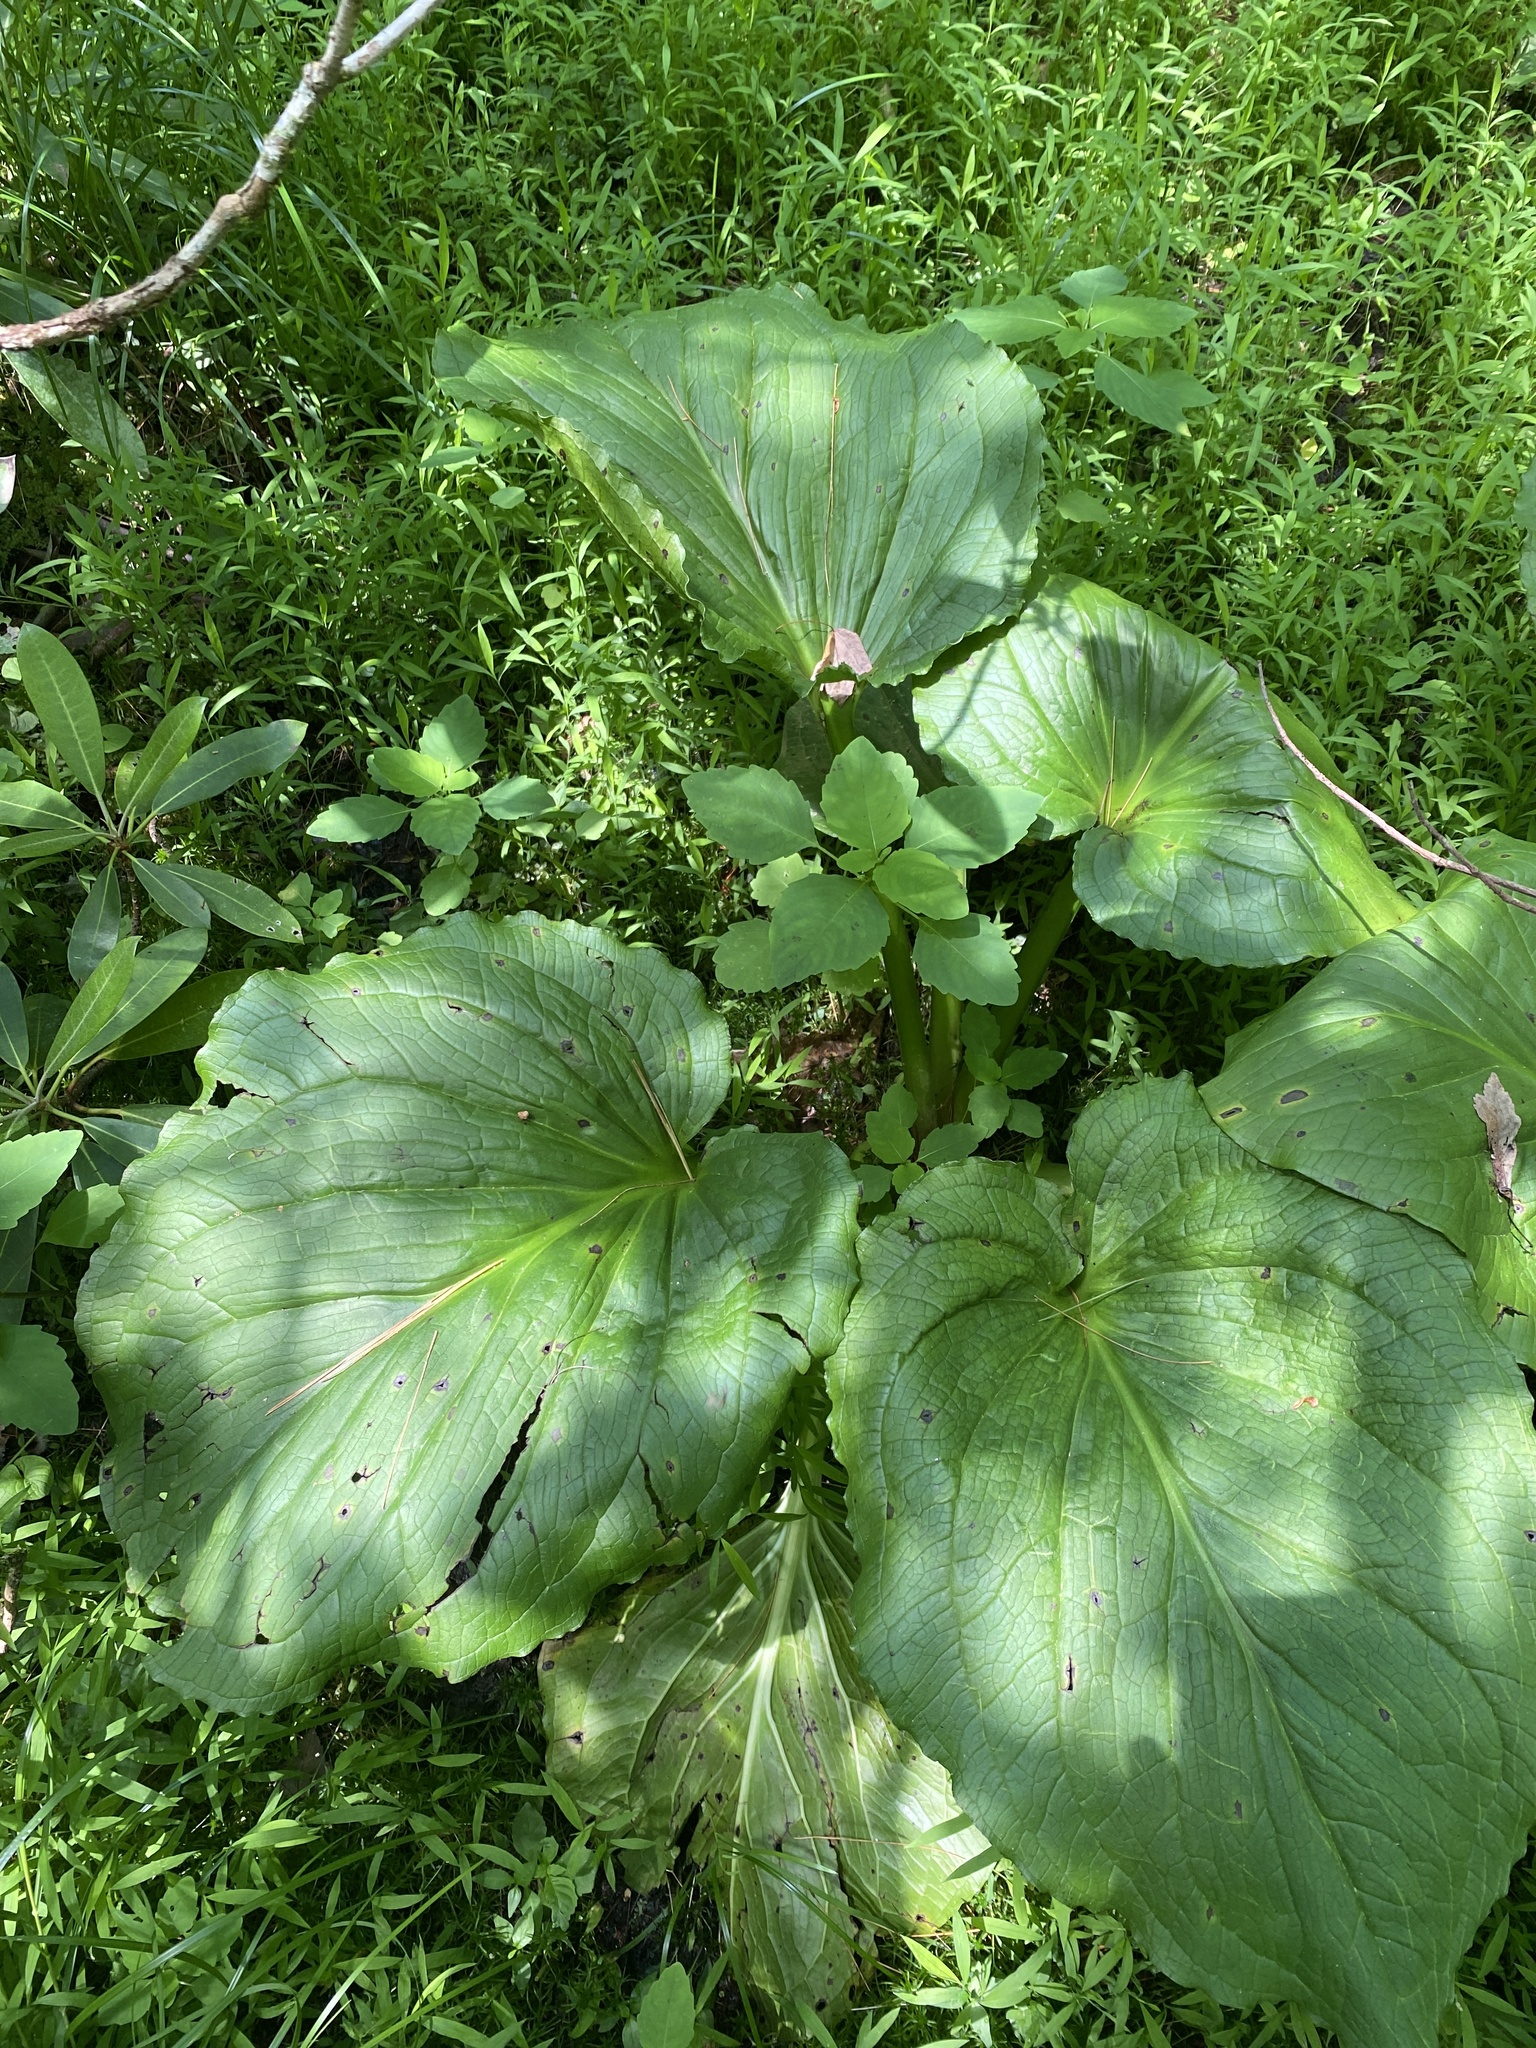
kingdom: Plantae
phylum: Tracheophyta
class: Liliopsida
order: Alismatales
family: Araceae
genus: Symplocarpus
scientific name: Symplocarpus foetidus
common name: Eastern skunk cabbage
